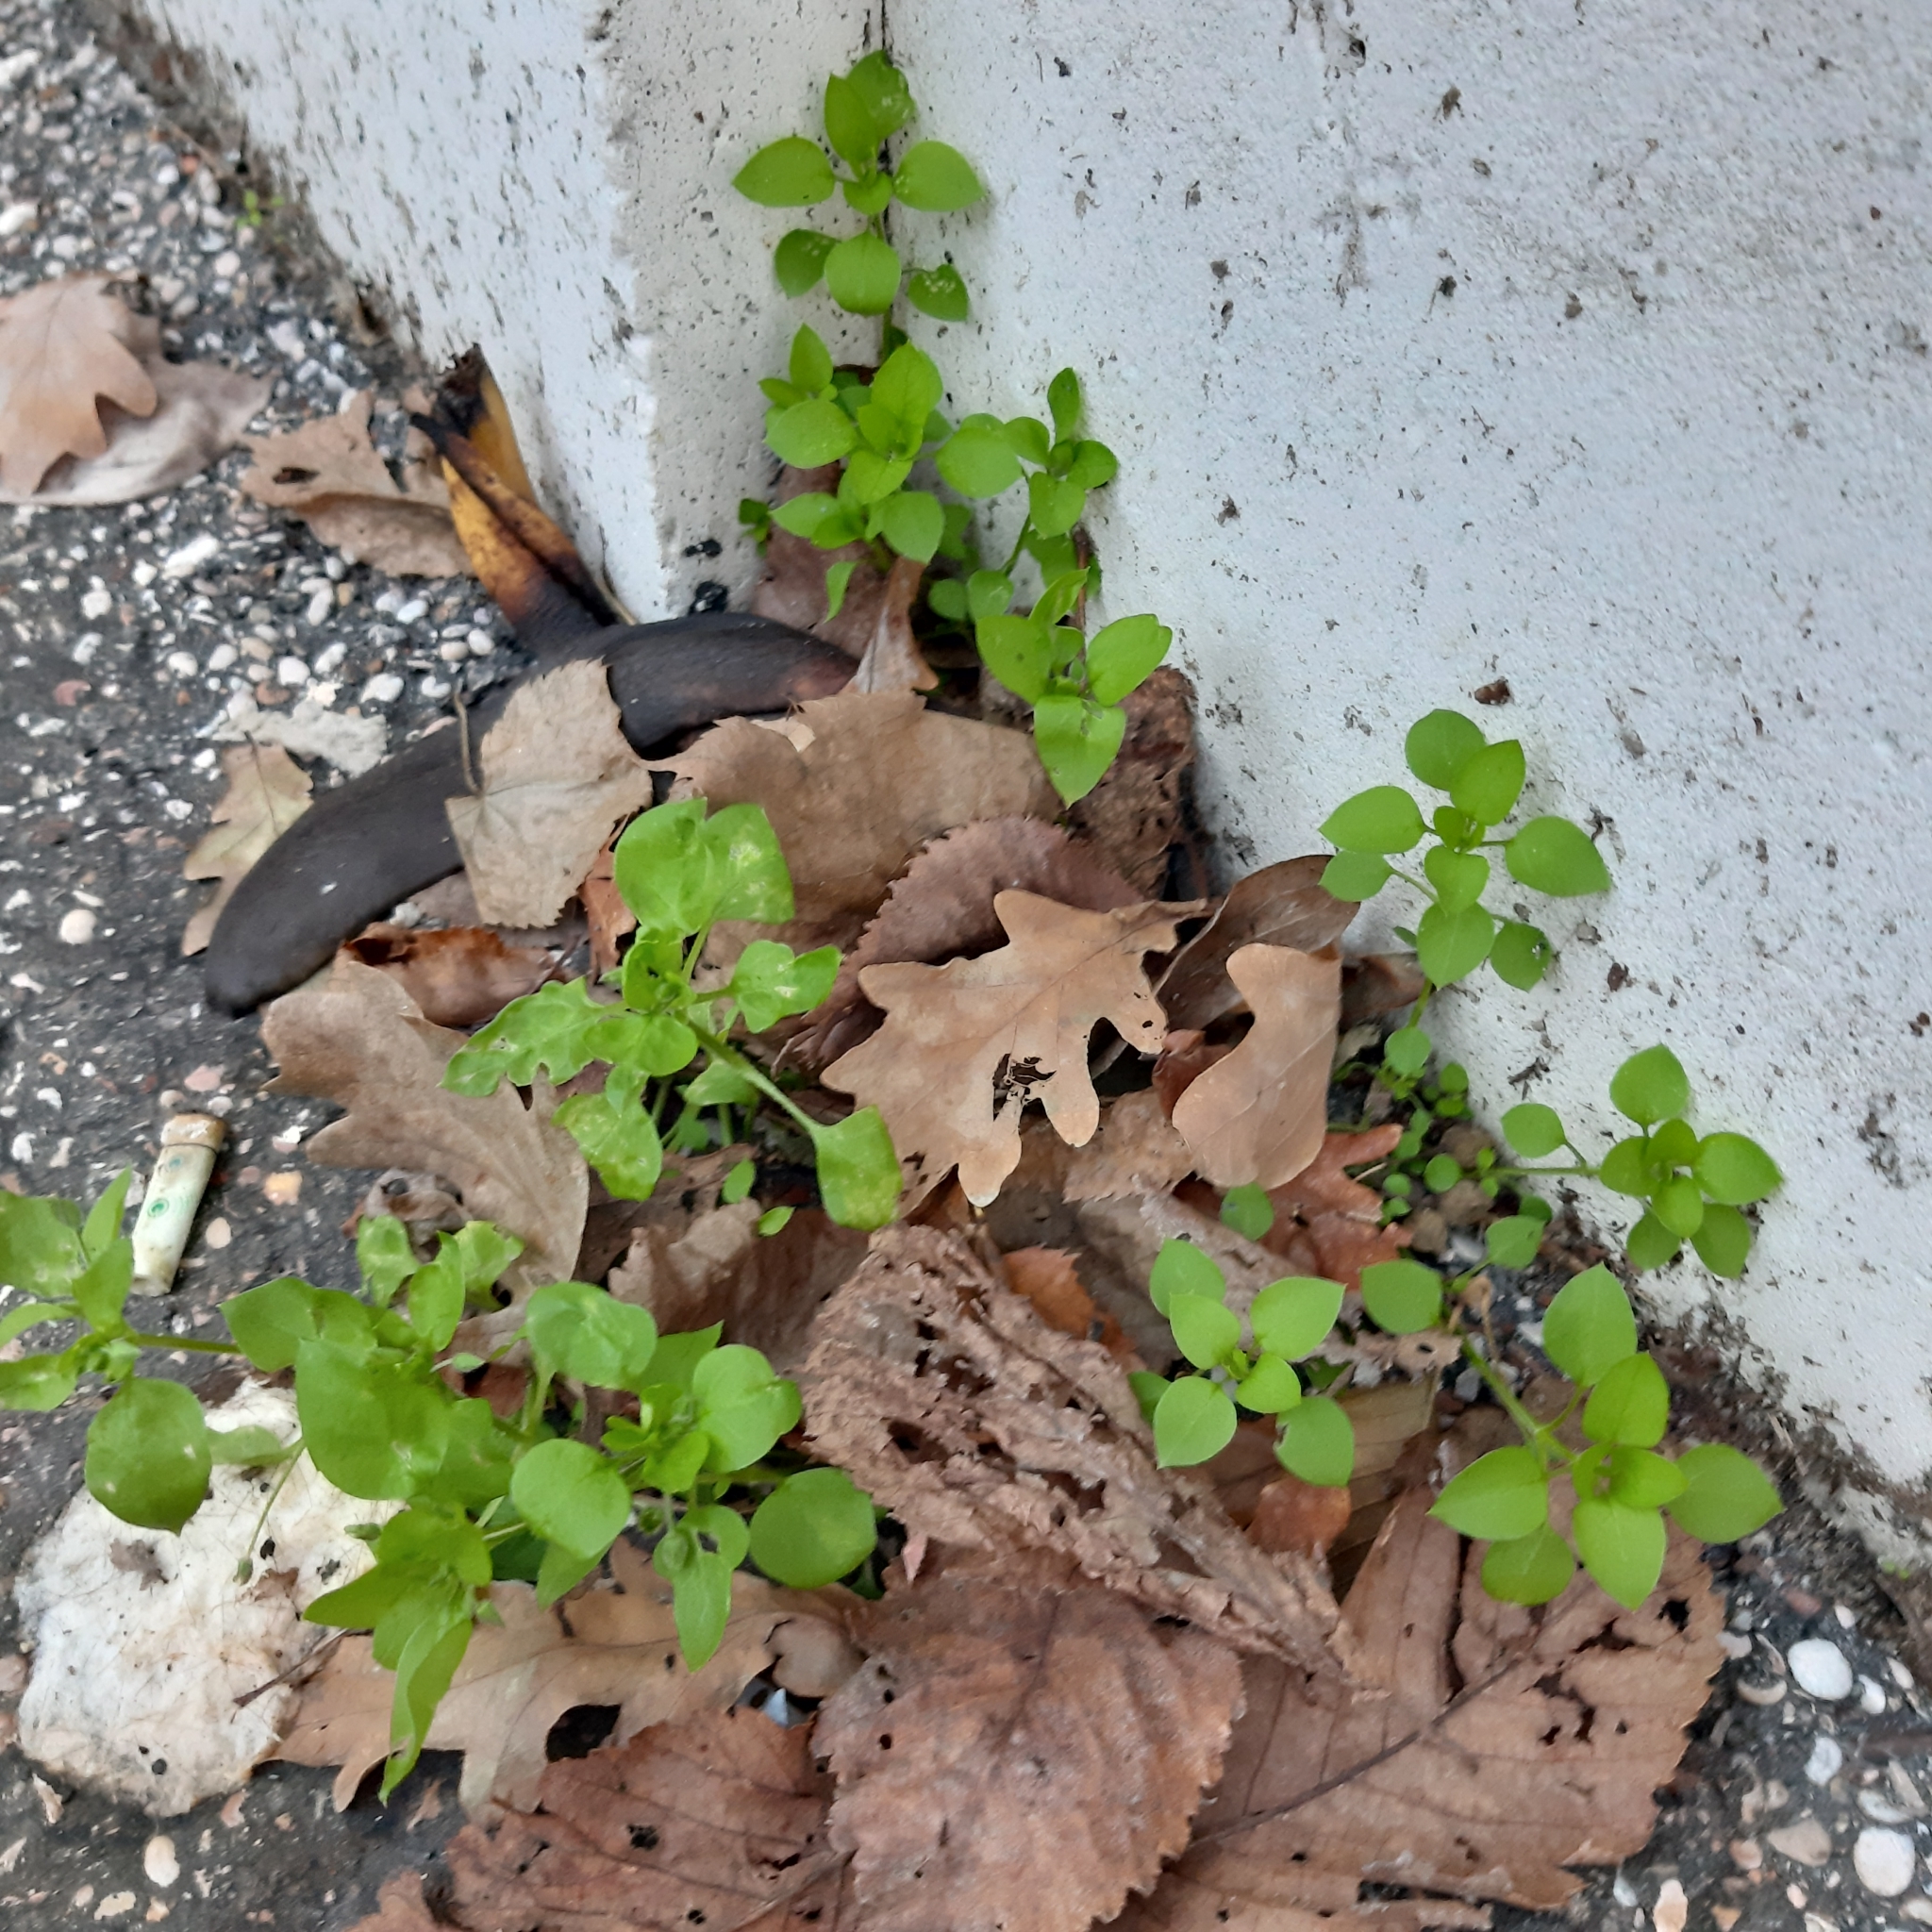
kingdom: Plantae
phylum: Tracheophyta
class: Magnoliopsida
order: Caryophyllales
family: Caryophyllaceae
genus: Stellaria
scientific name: Stellaria media
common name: Common chickweed
